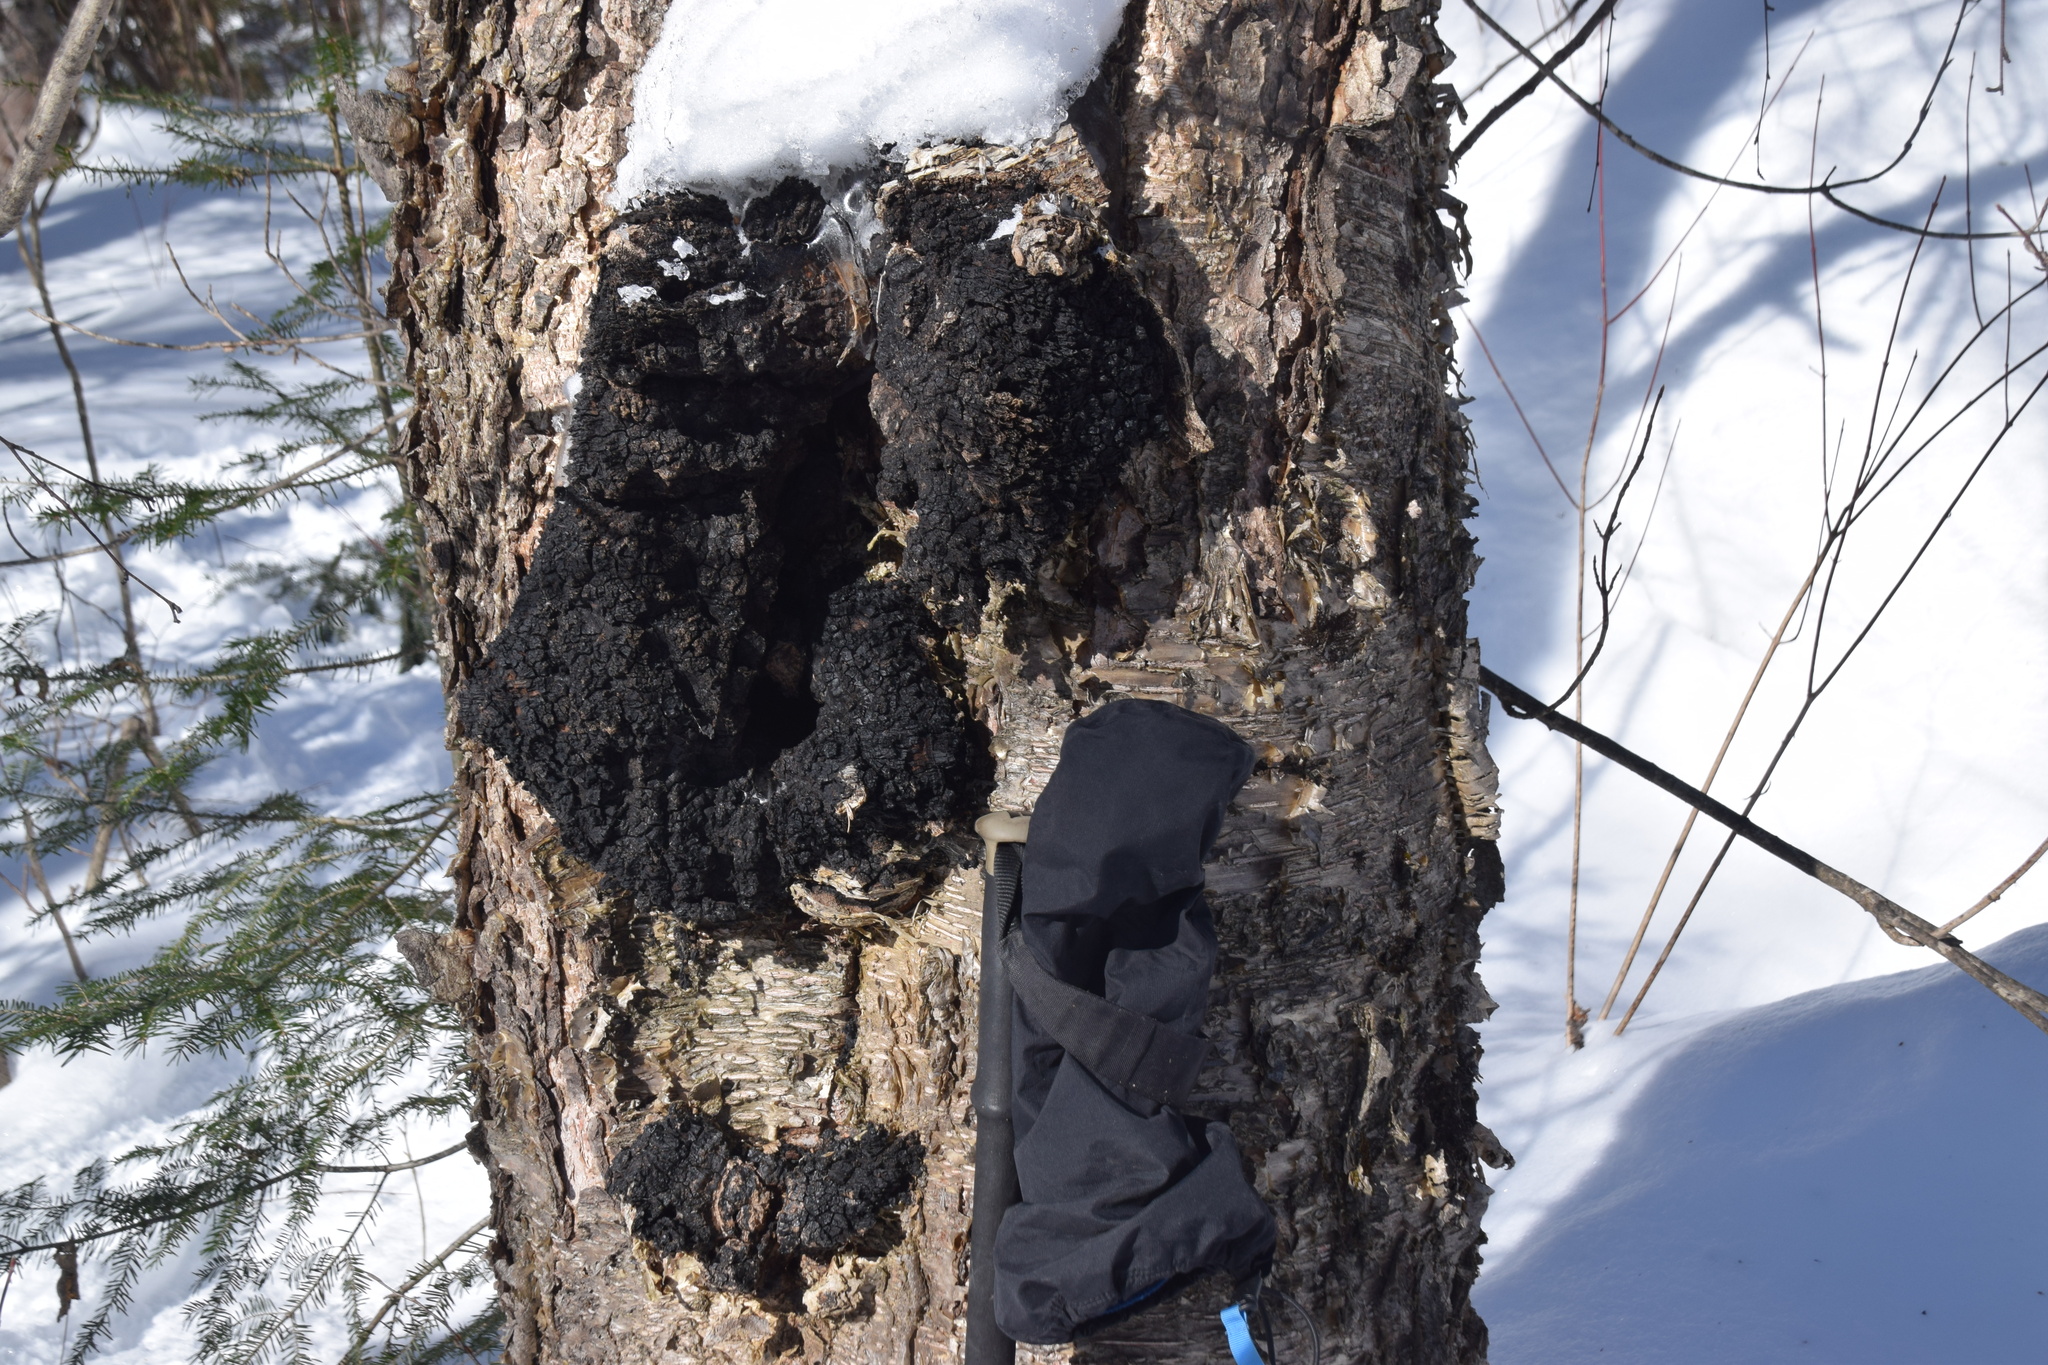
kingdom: Fungi
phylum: Basidiomycota
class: Agaricomycetes
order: Hymenochaetales
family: Hymenochaetaceae
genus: Inonotus
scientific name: Inonotus obliquus
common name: Chaga
